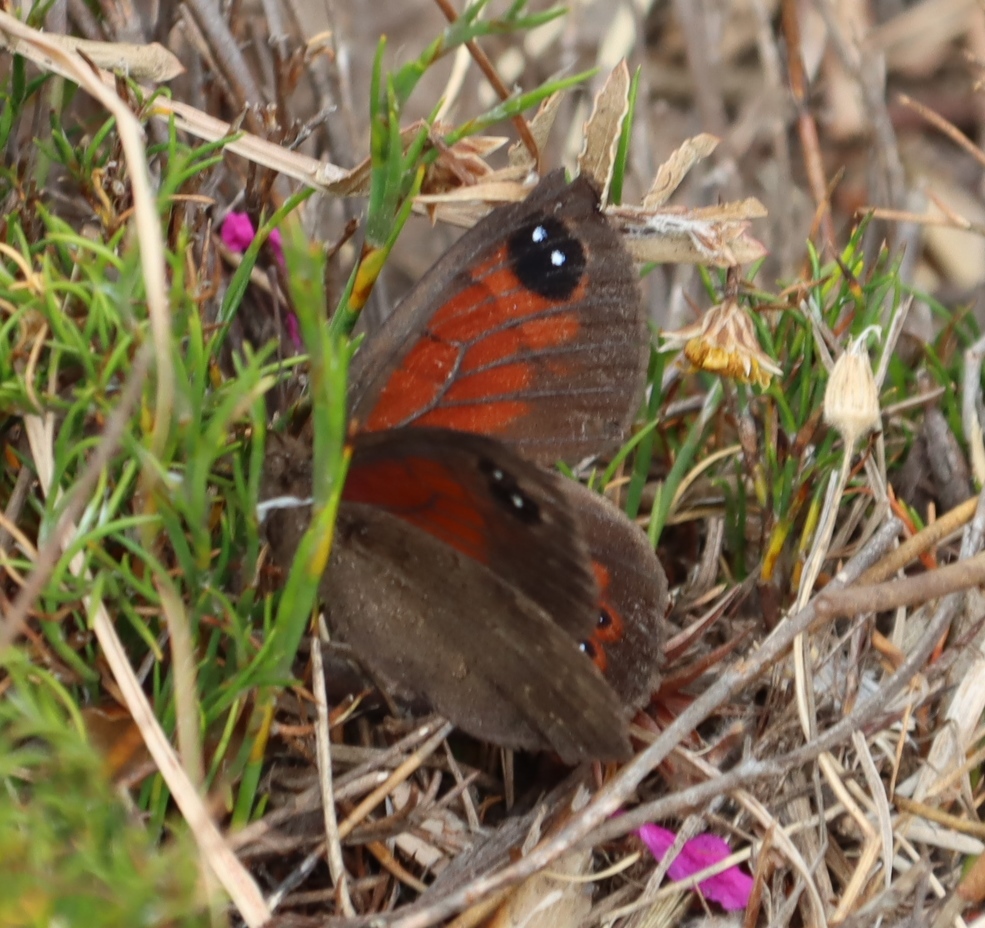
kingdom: Animalia
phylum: Arthropoda
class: Insecta
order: Lepidoptera
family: Nymphalidae
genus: Tarsocera
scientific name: Tarsocera
